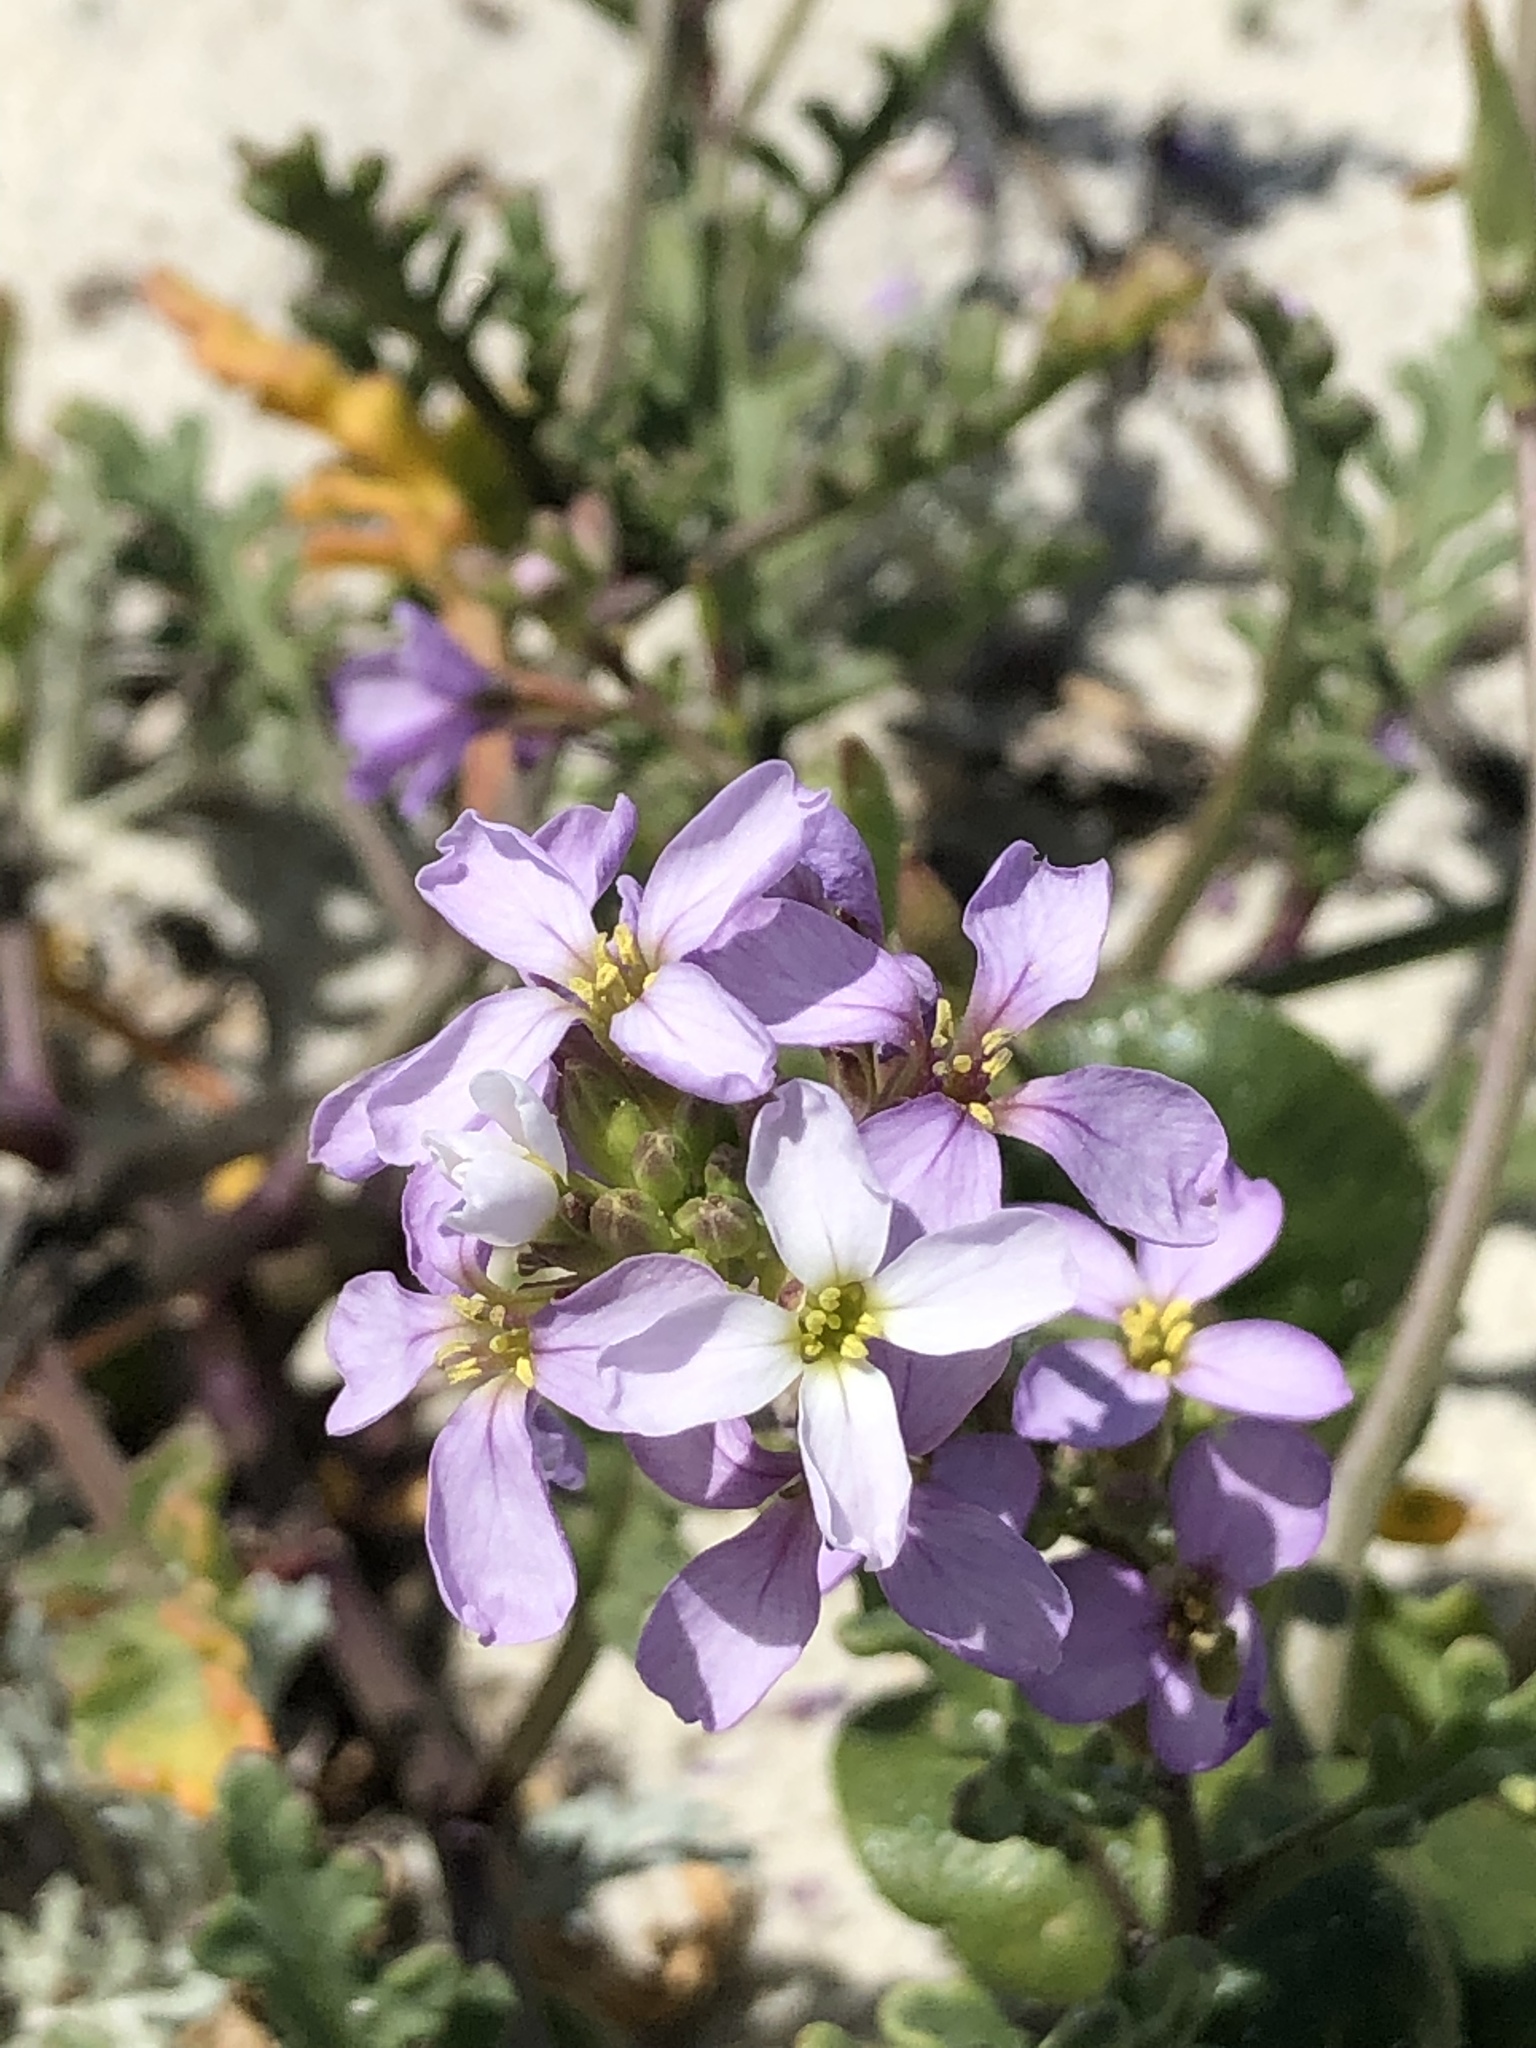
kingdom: Plantae
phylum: Tracheophyta
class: Magnoliopsida
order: Brassicales
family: Brassicaceae
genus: Cakile
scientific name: Cakile maritima
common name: Sea rocket
